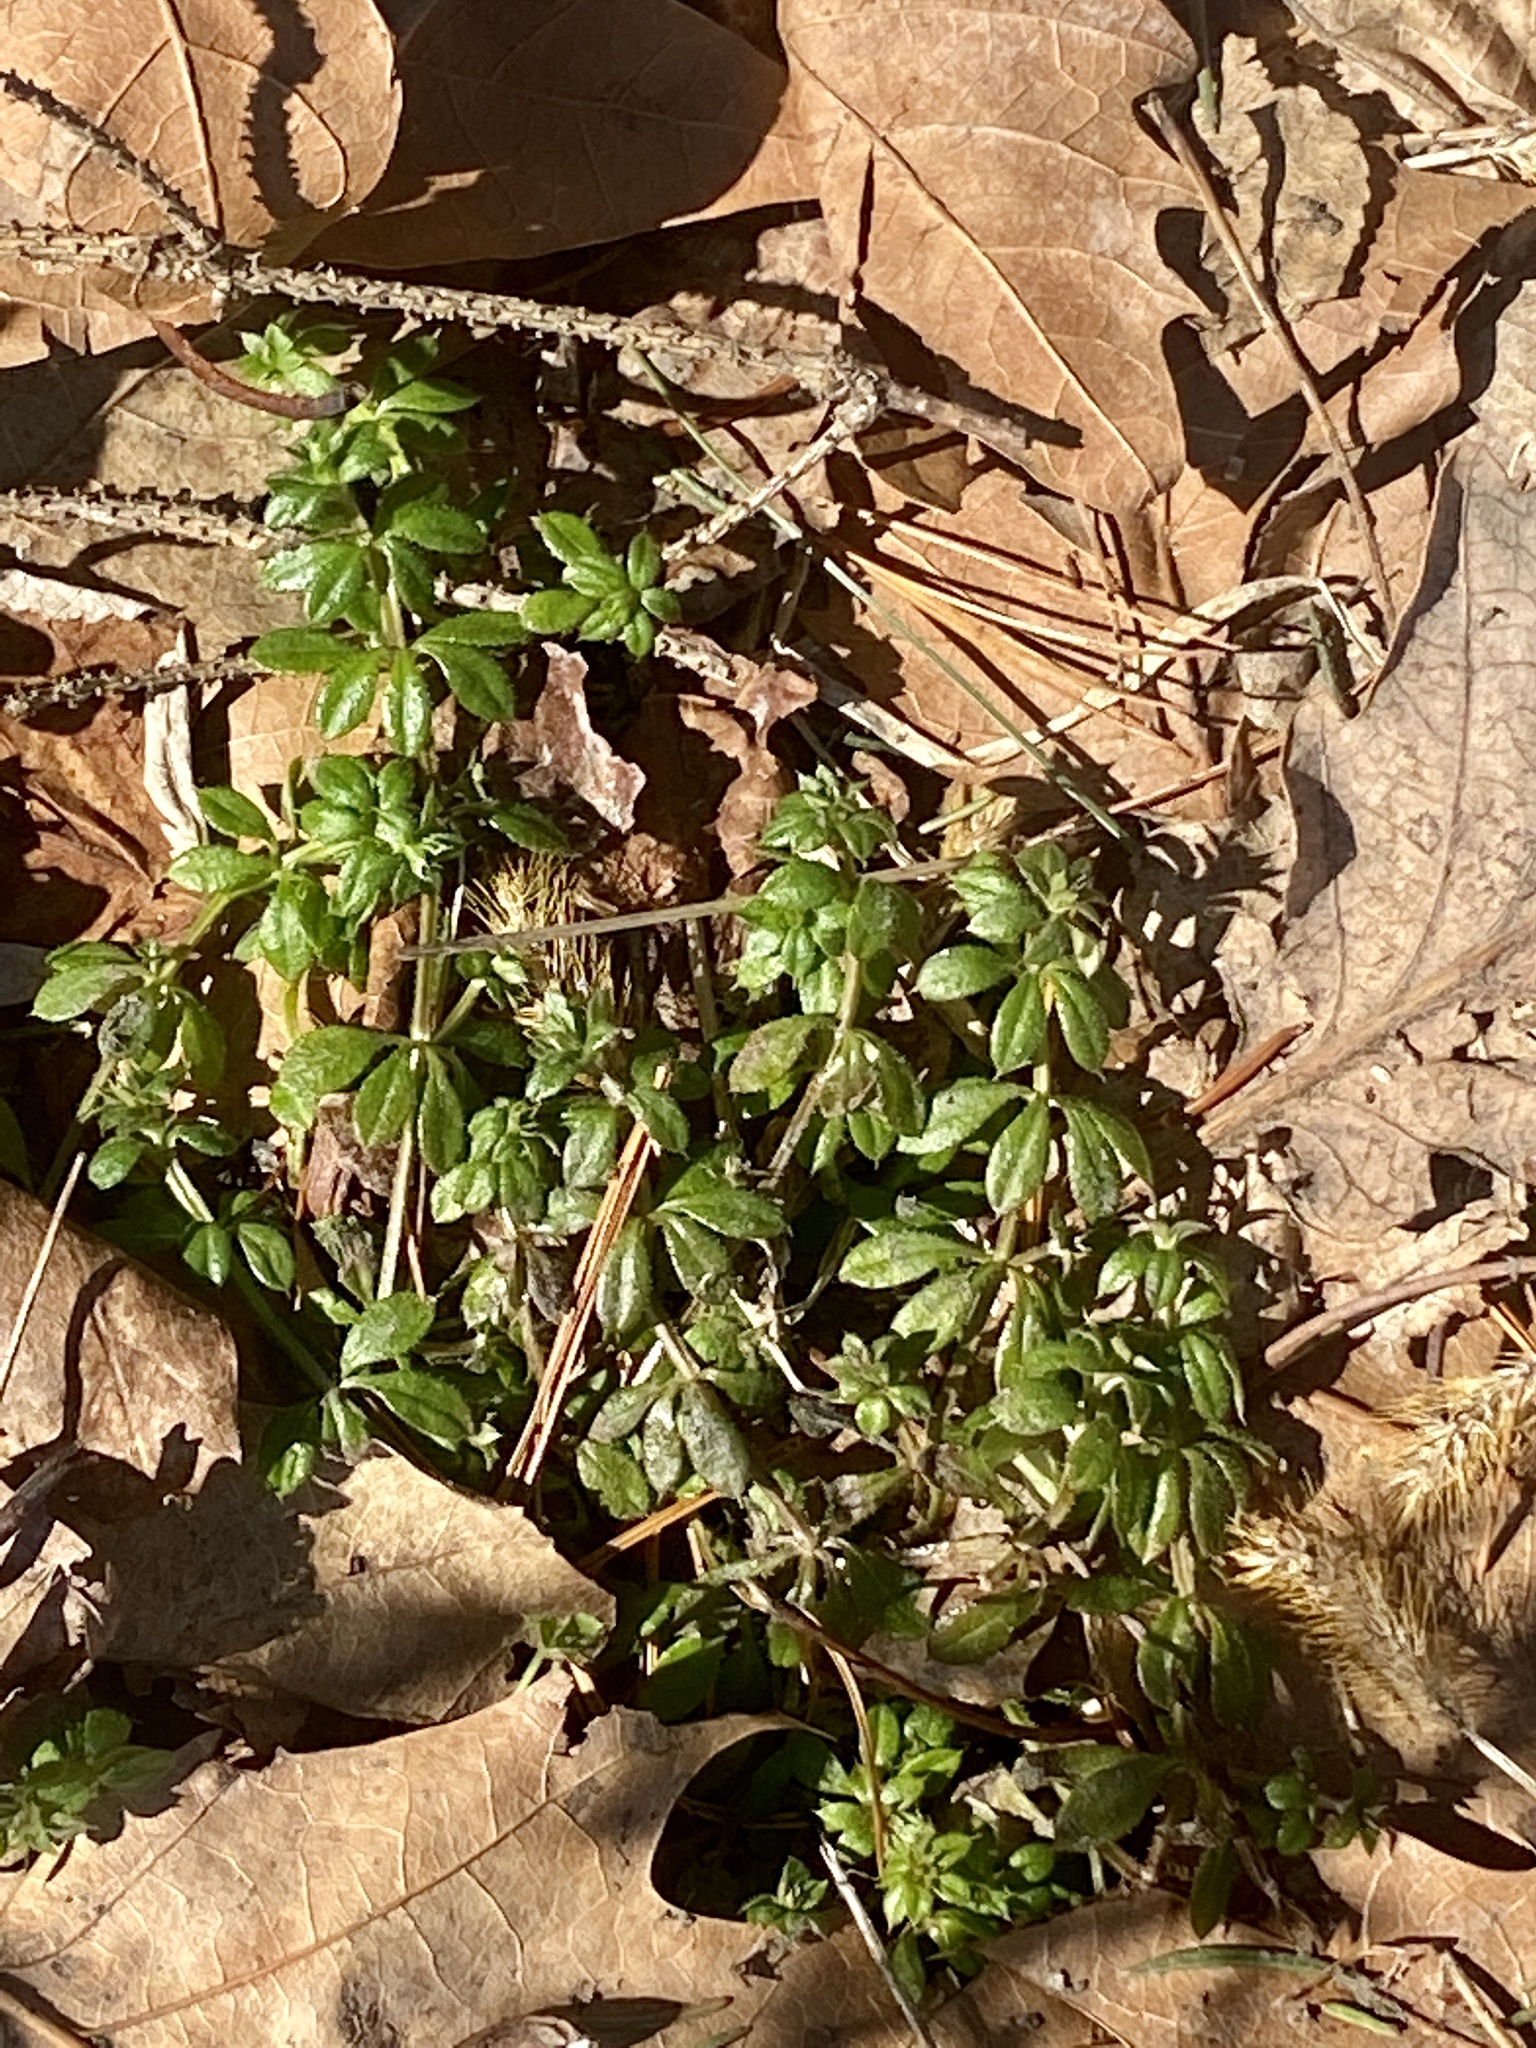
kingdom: Plantae
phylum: Tracheophyta
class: Magnoliopsida
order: Gentianales
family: Rubiaceae
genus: Galium
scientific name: Galium aparine
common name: Cleavers
